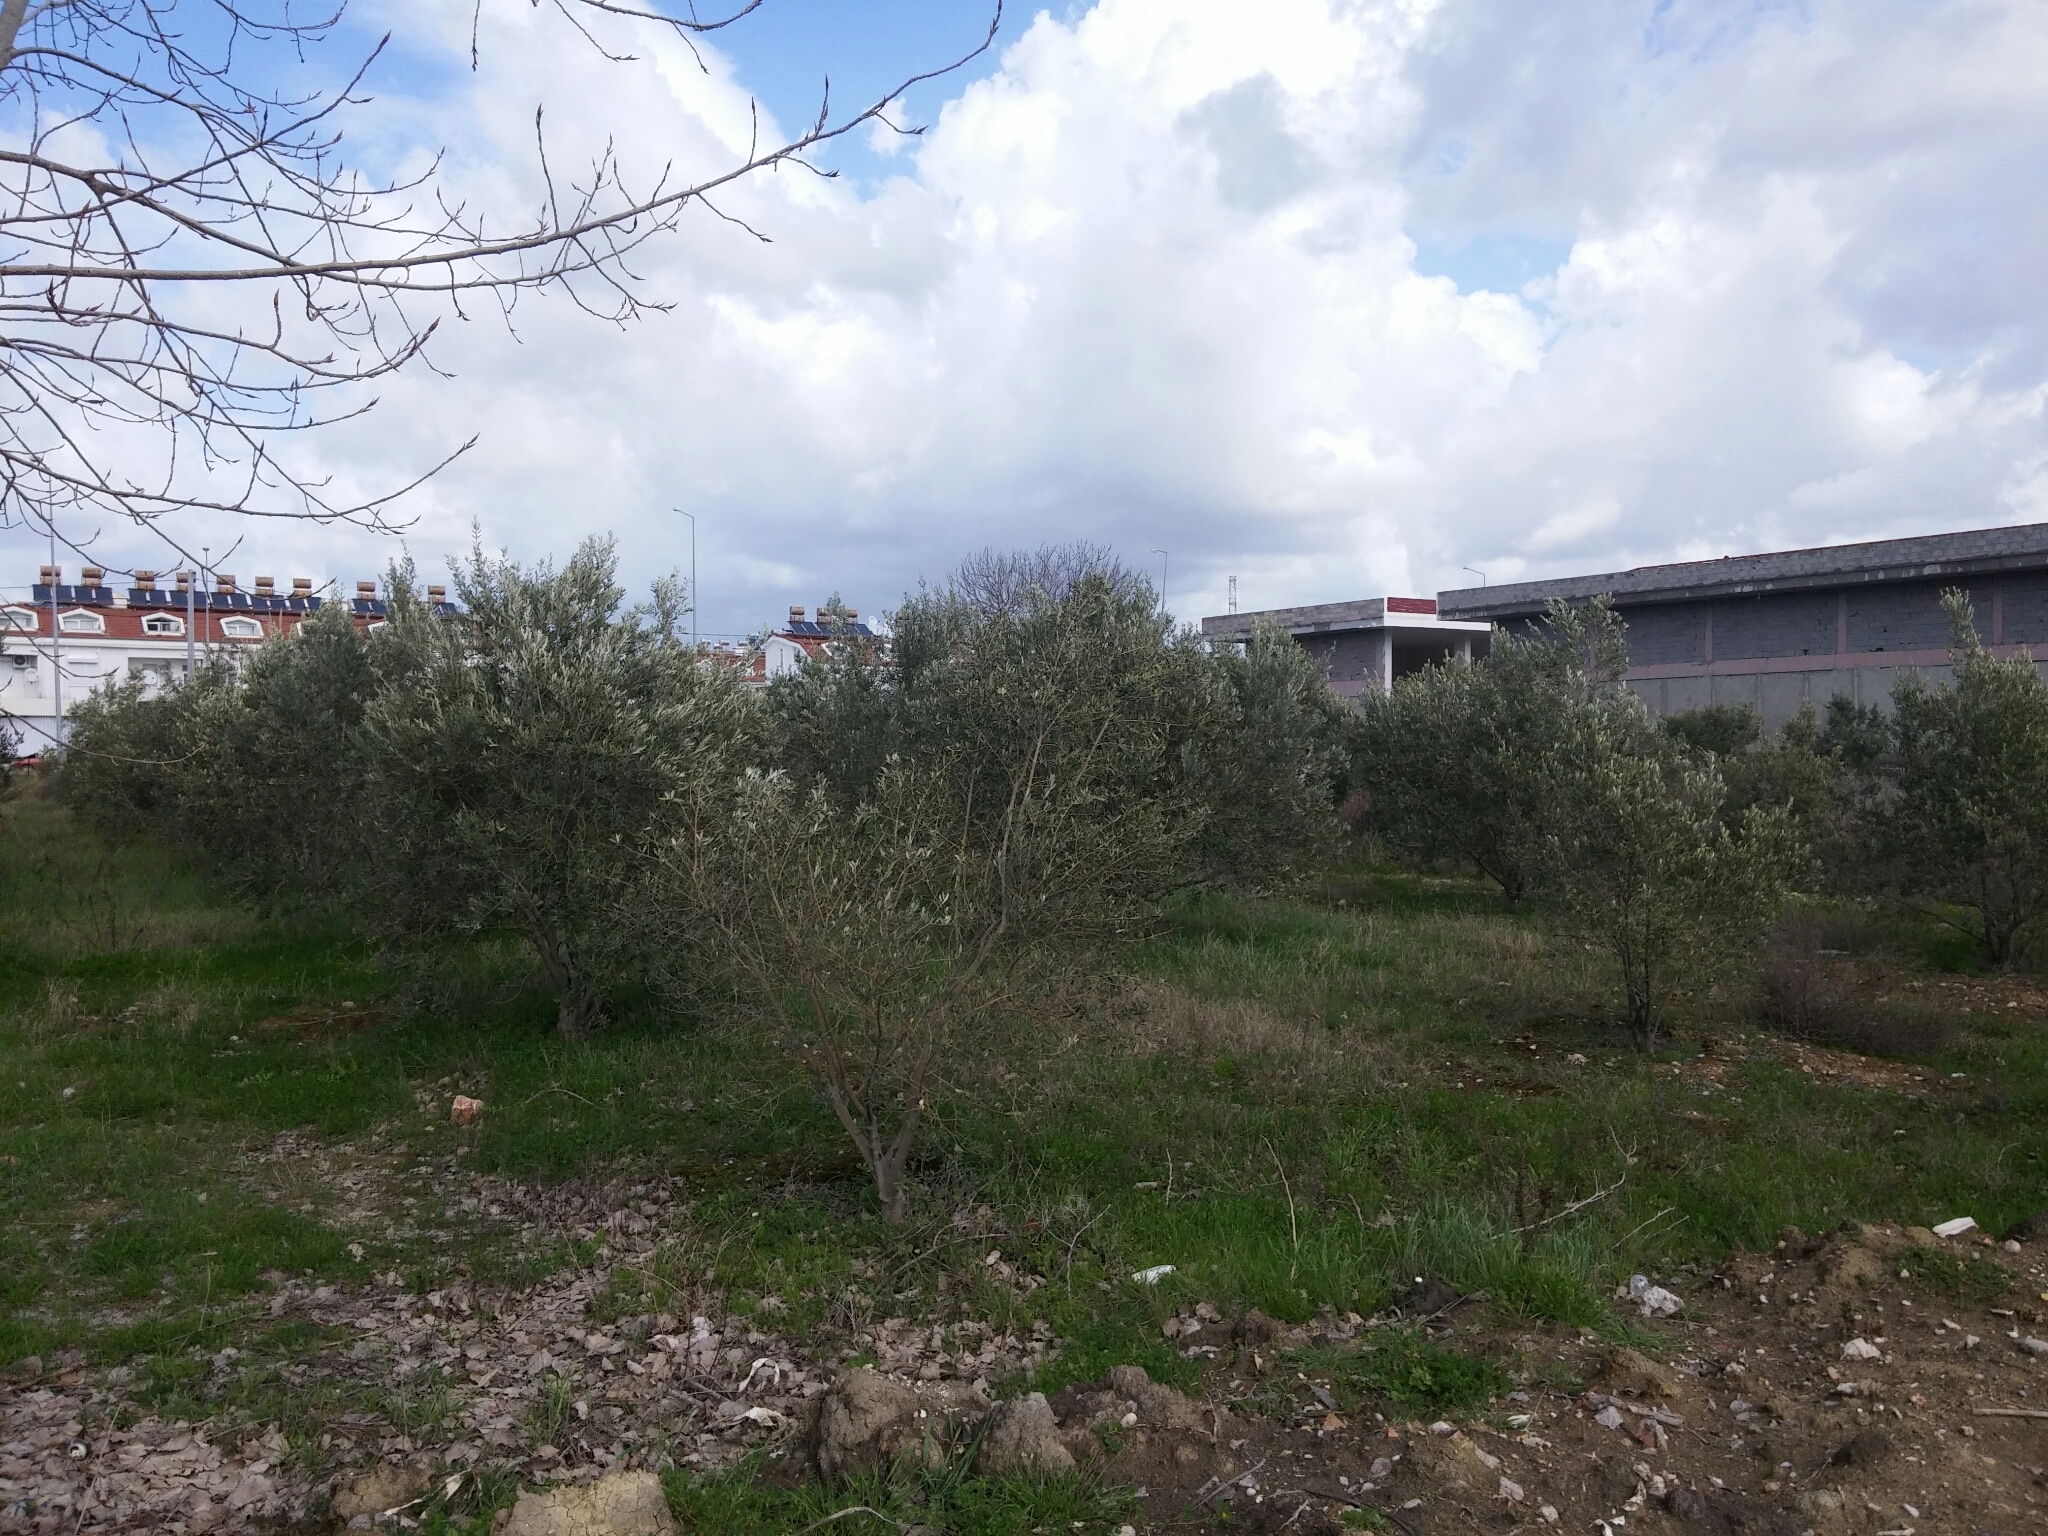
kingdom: Plantae
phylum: Tracheophyta
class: Magnoliopsida
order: Lamiales
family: Oleaceae
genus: Olea
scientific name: Olea europaea
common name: Olive
